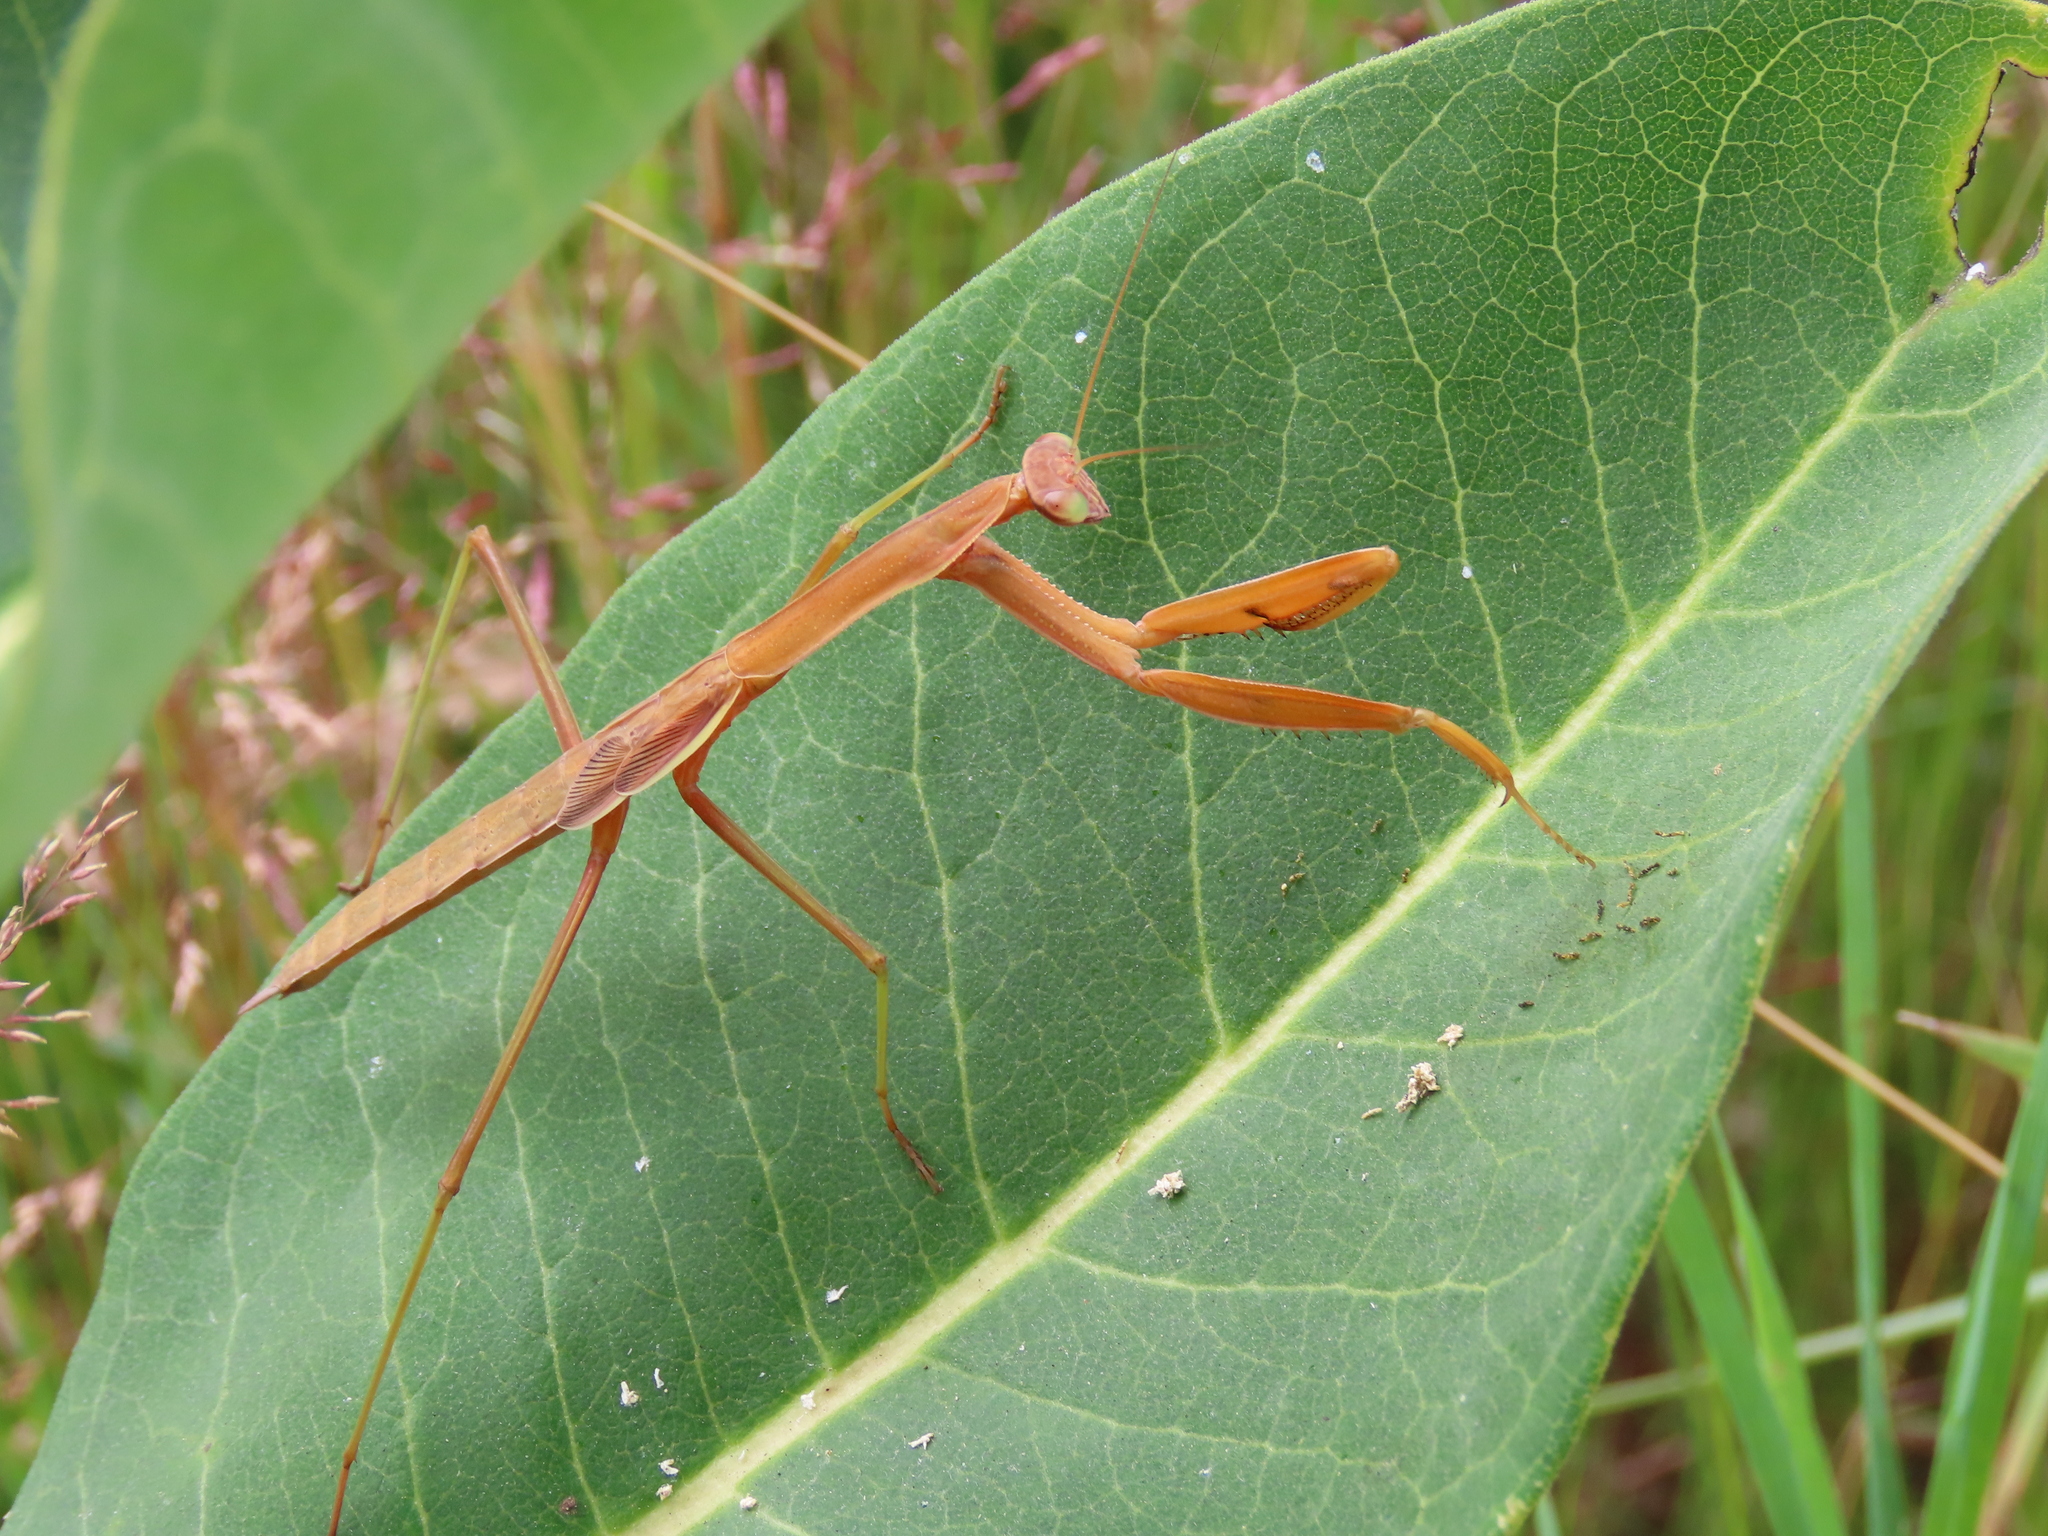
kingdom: Animalia
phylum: Arthropoda
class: Insecta
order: Mantodea
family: Mantidae
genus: Tenodera
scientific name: Tenodera sinensis
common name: Chinese mantis
